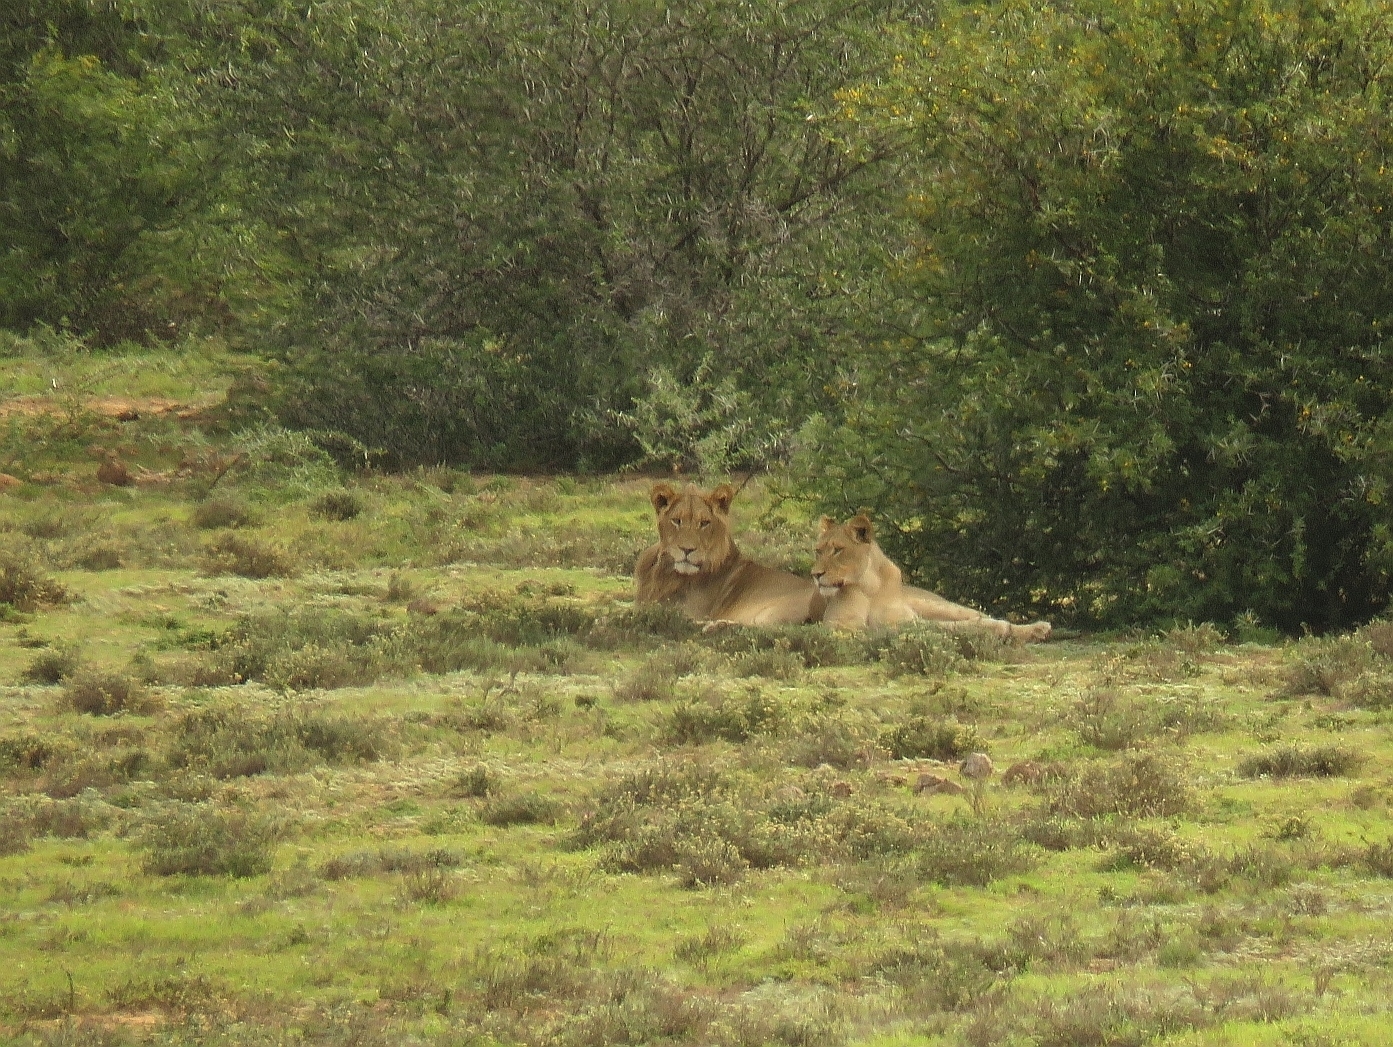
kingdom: Animalia
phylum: Chordata
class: Mammalia
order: Carnivora
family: Felidae
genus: Panthera
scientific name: Panthera leo
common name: Lion
